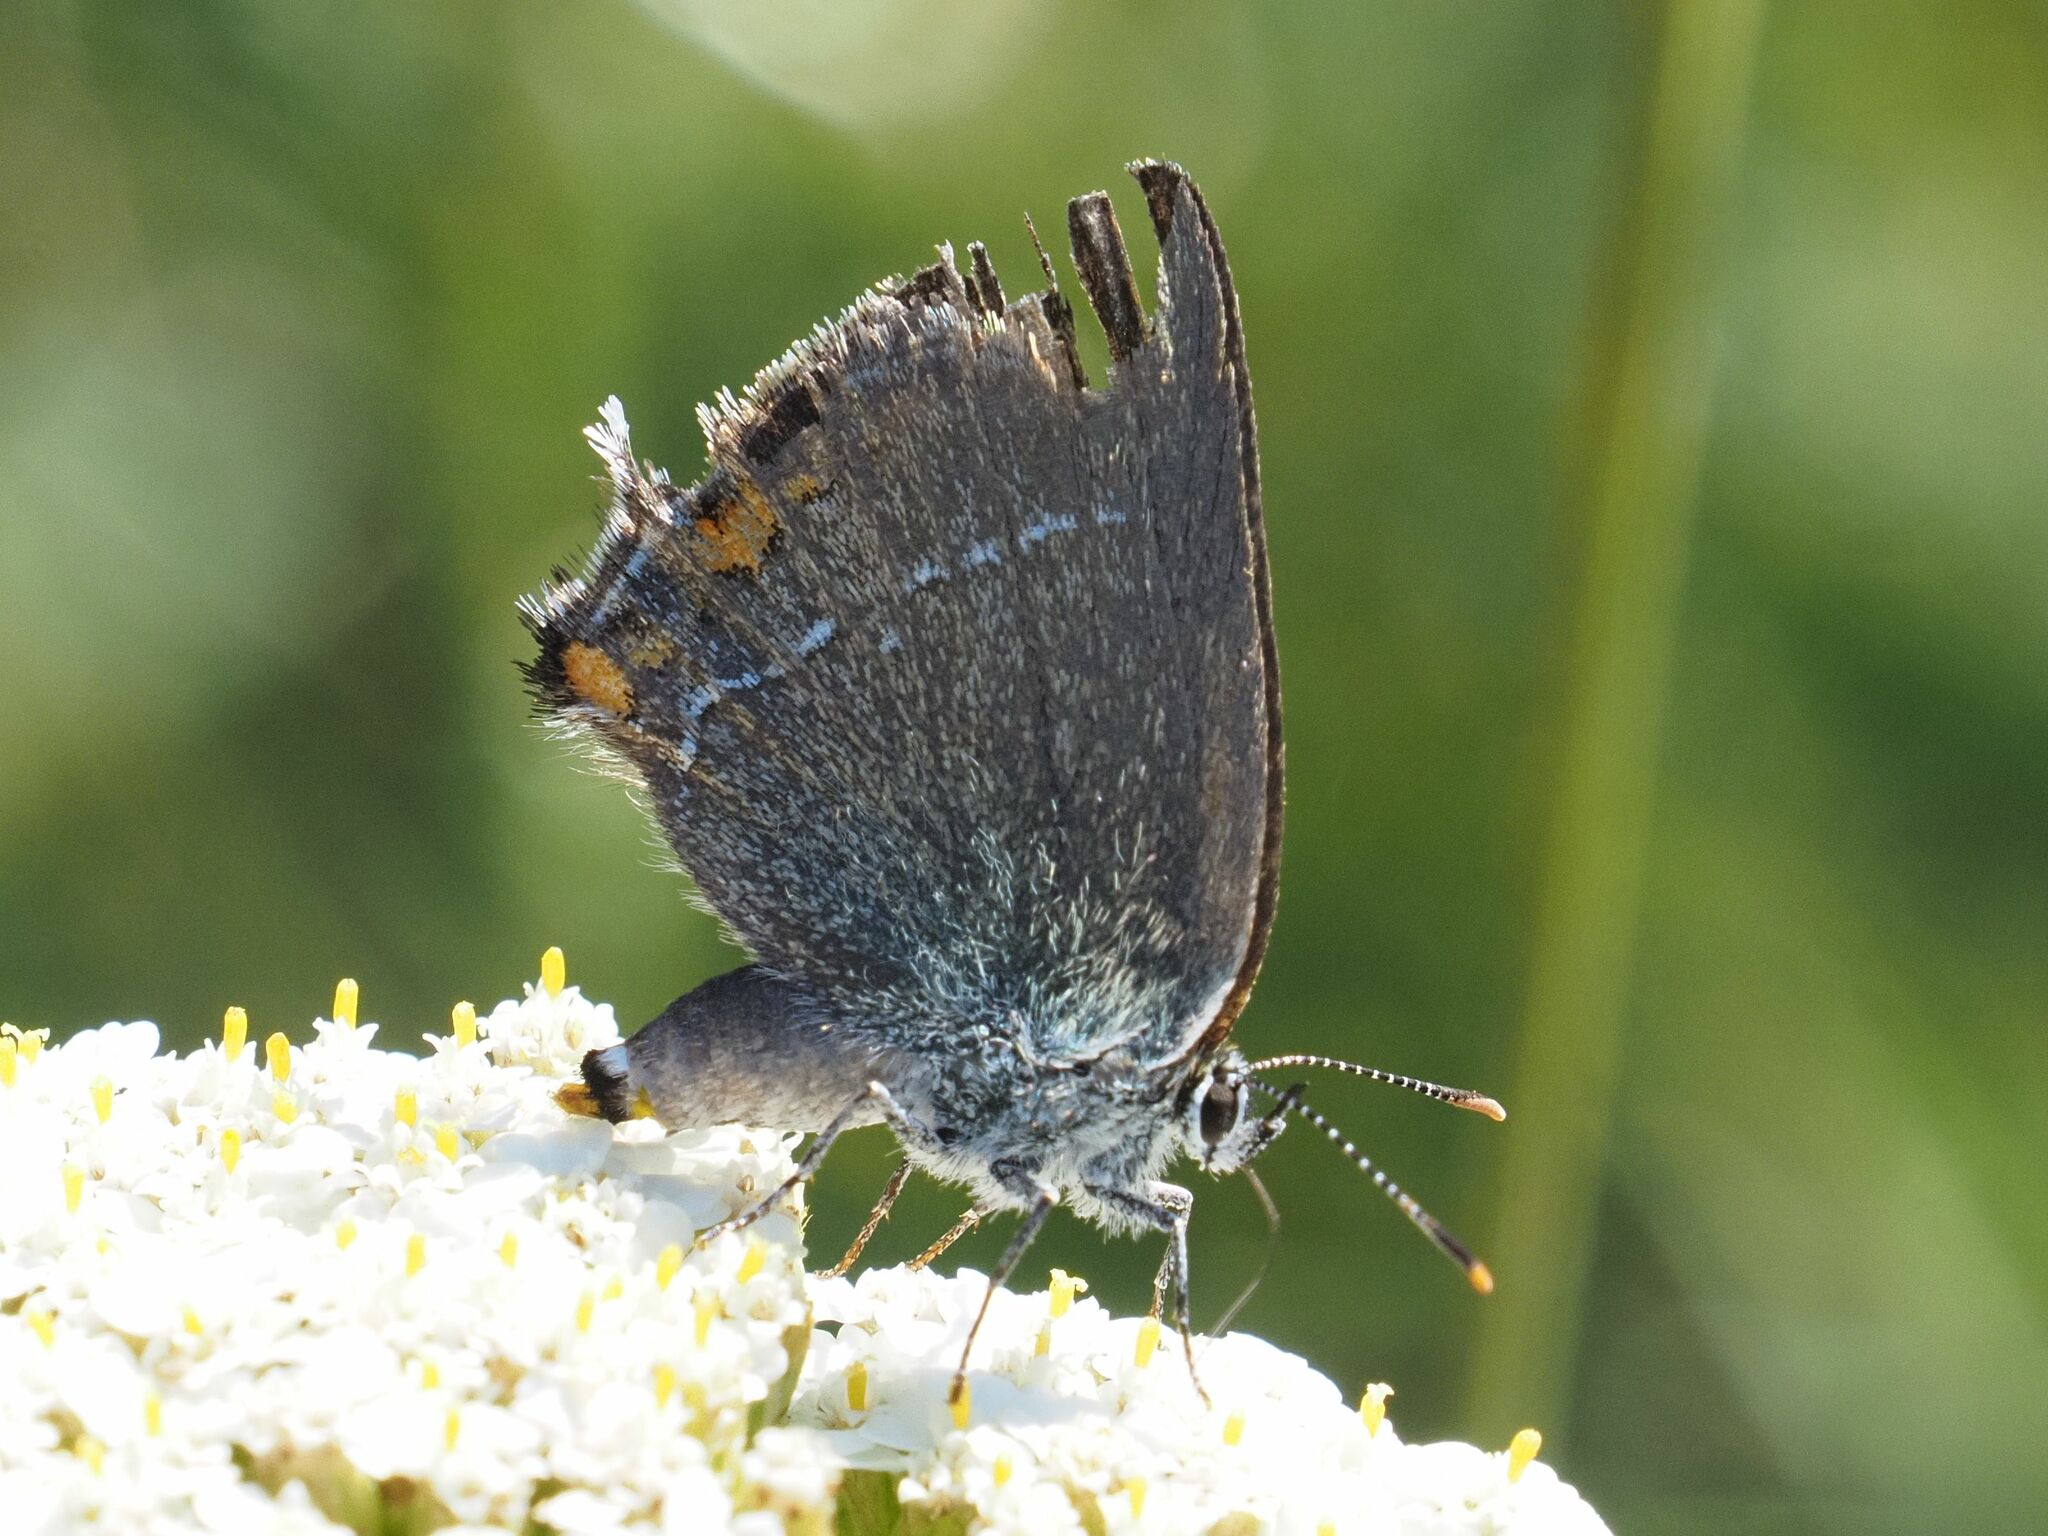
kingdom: Animalia
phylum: Arthropoda
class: Insecta
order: Lepidoptera
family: Lycaenidae
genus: Strymon
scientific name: Strymon acaciae
